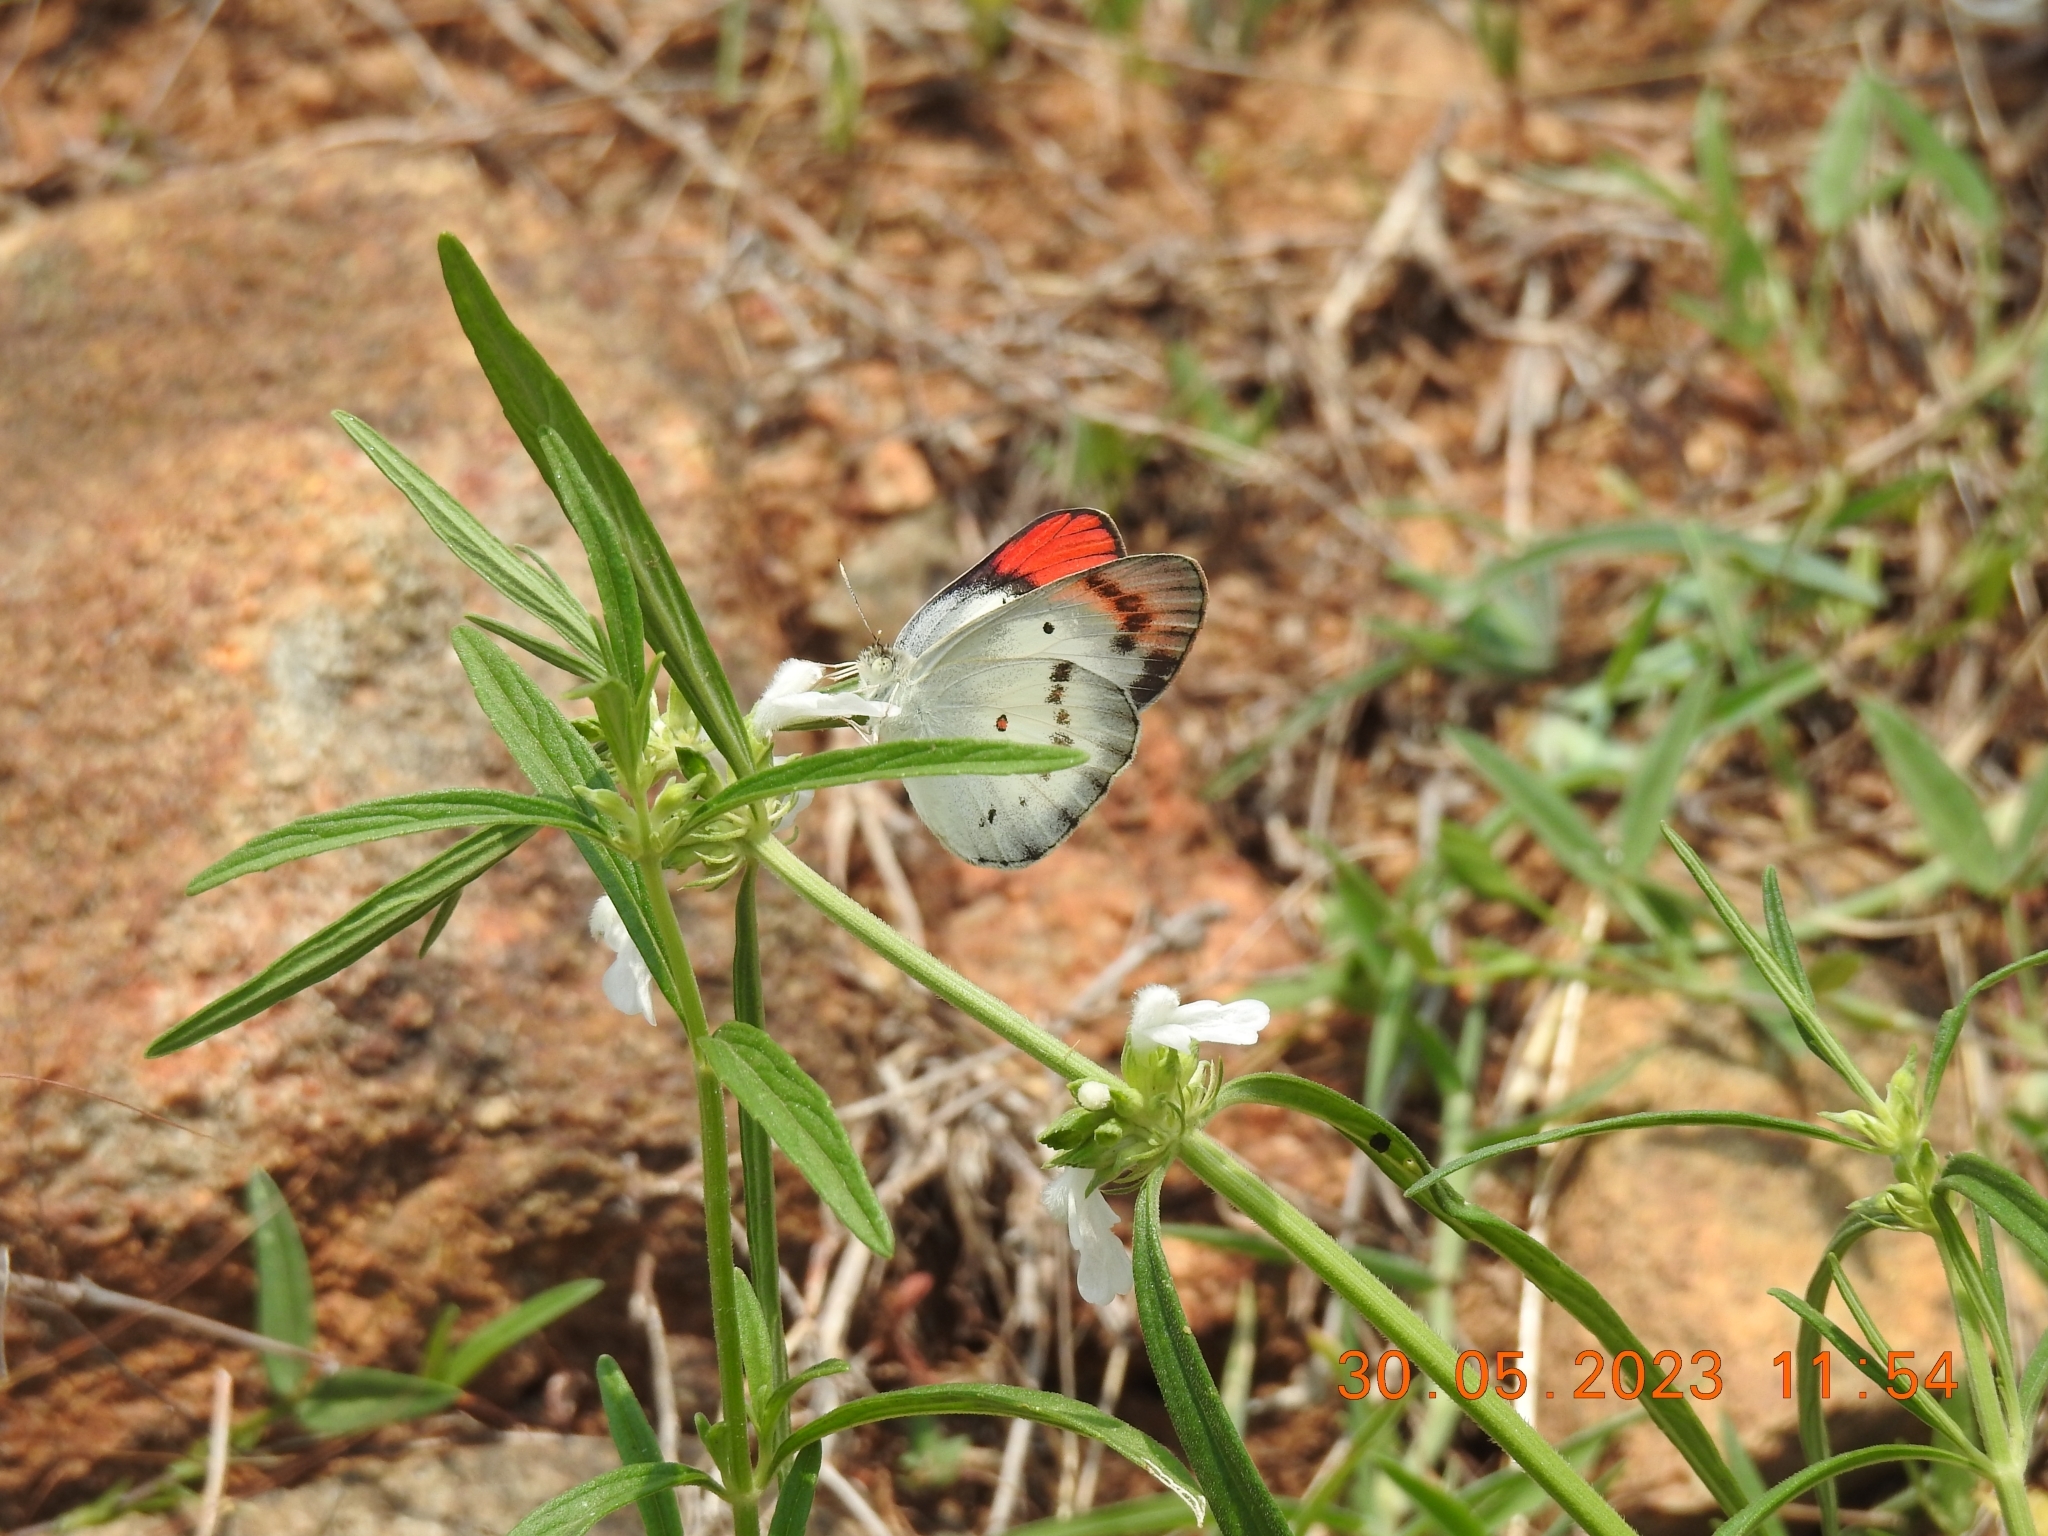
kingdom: Animalia
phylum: Arthropoda
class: Insecta
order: Lepidoptera
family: Pieridae
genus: Colotis
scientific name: Colotis danae
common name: Crimson tip
